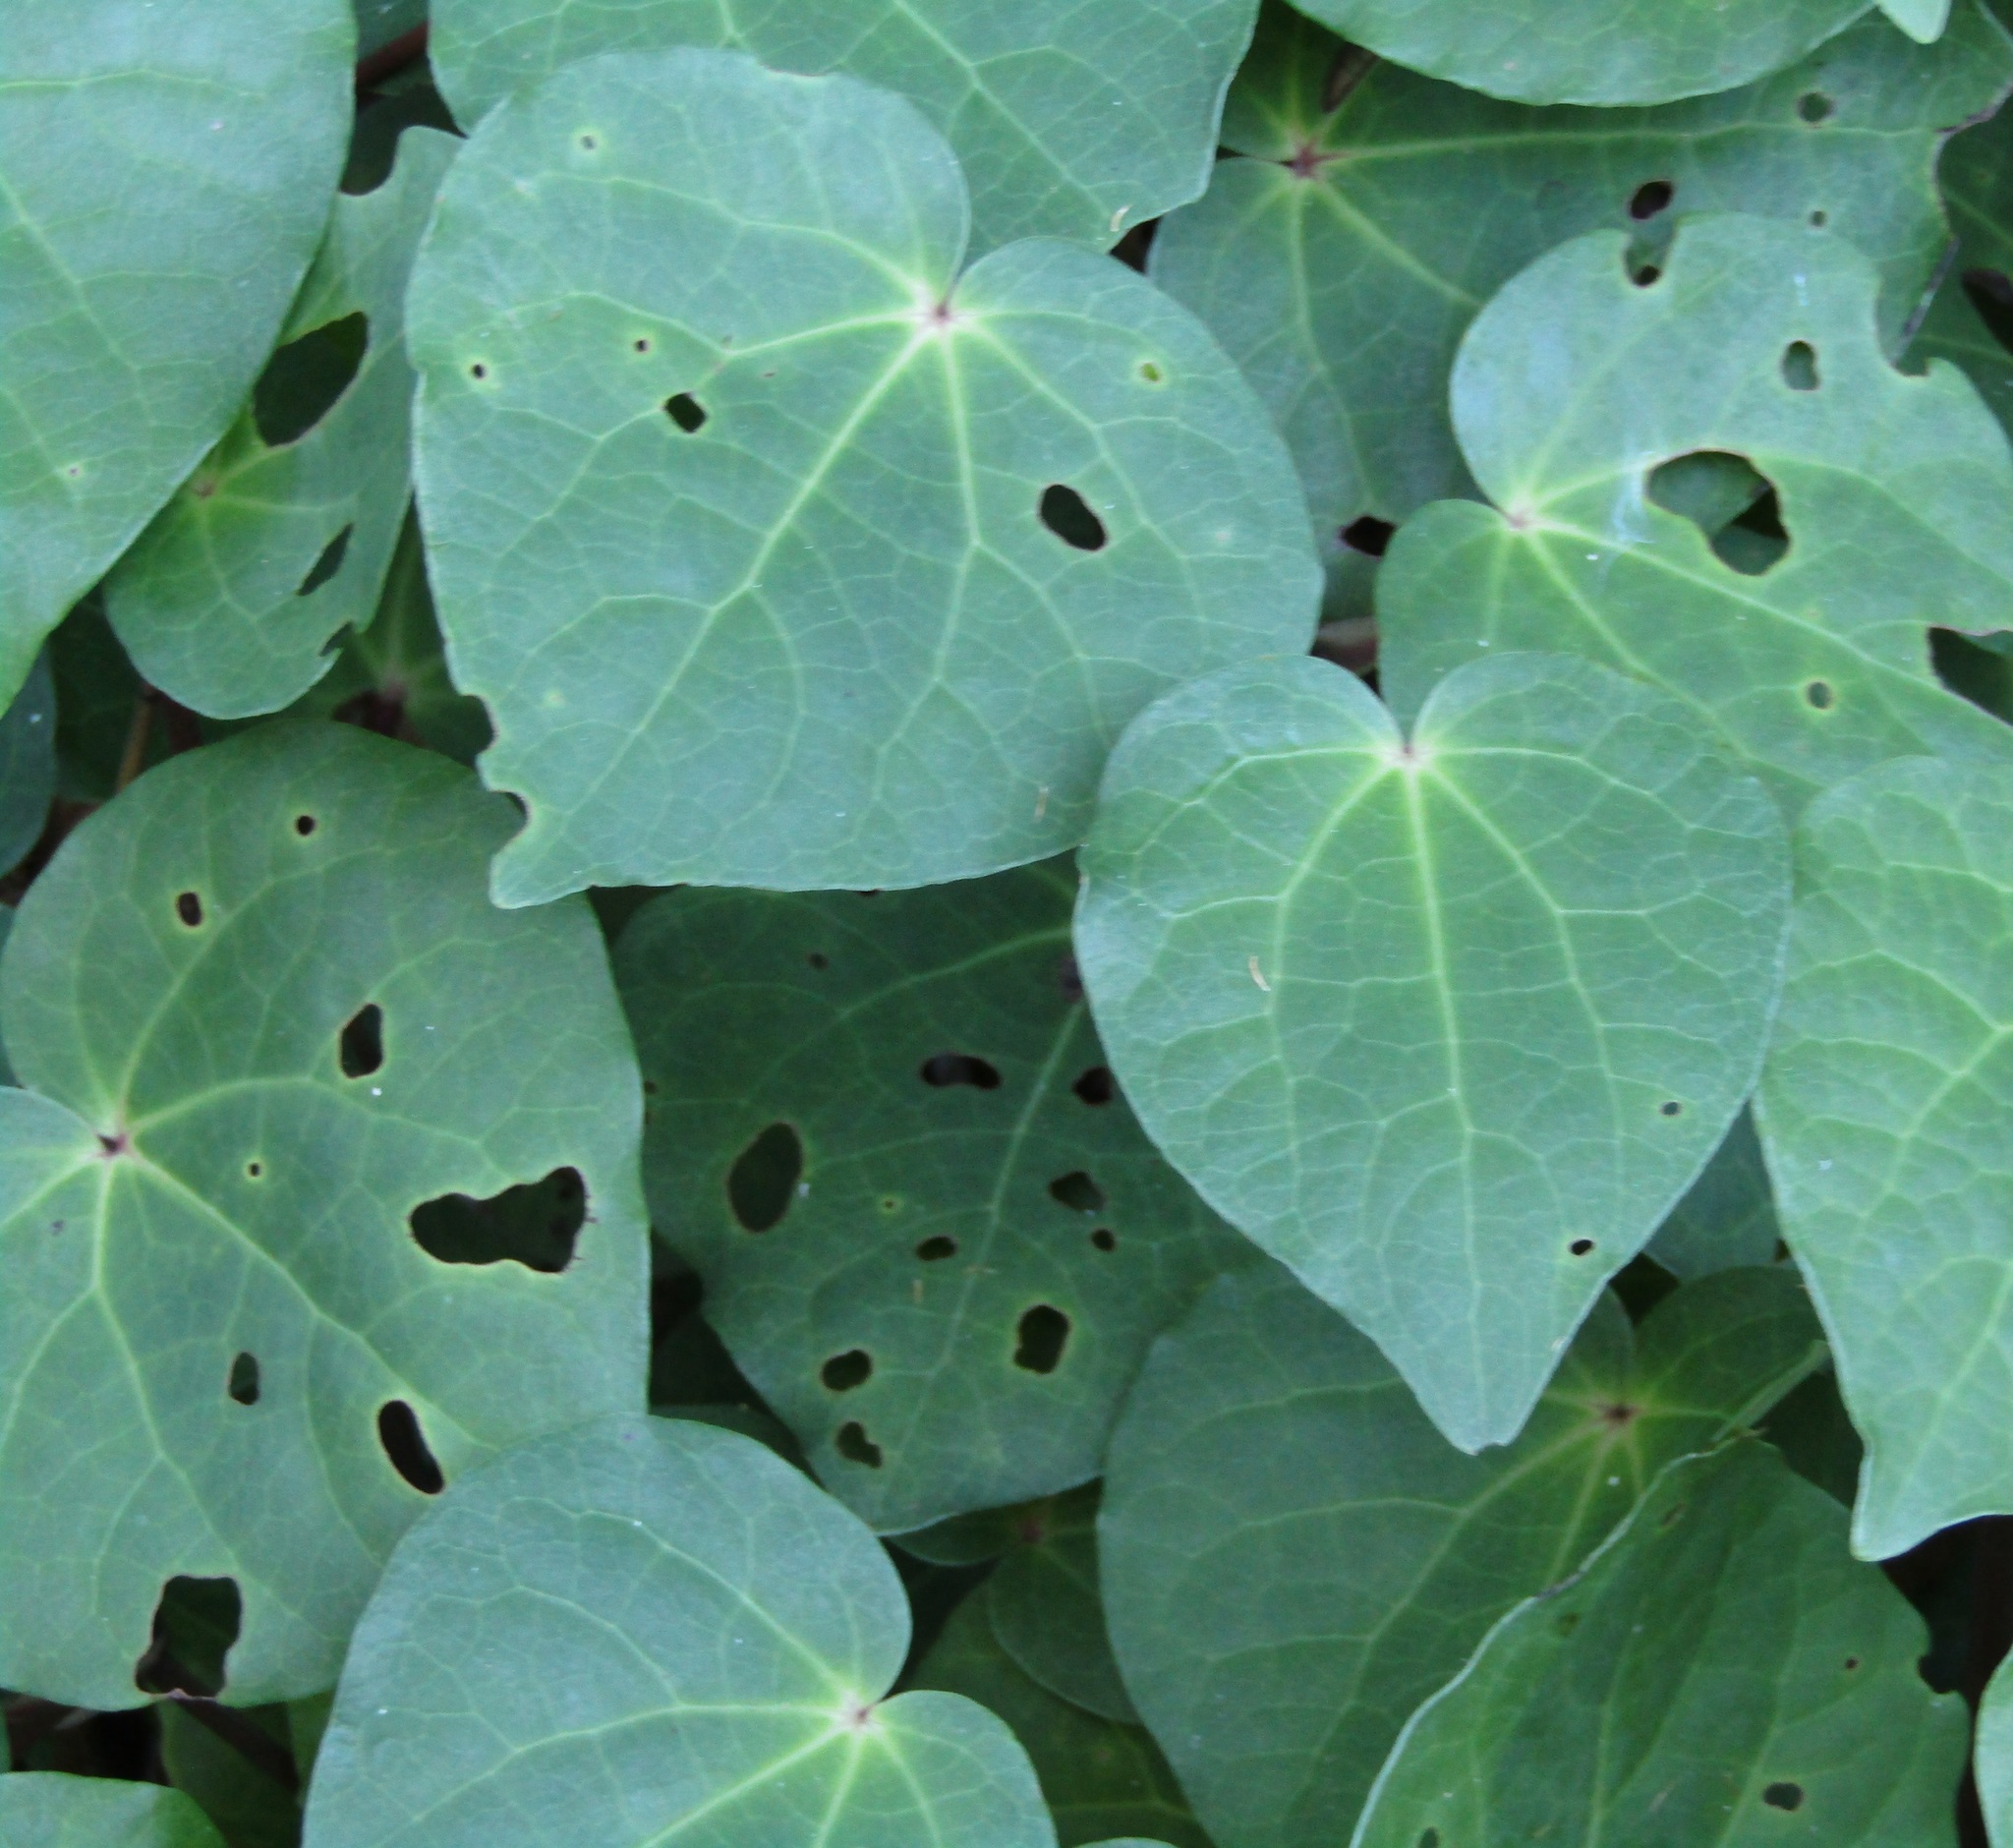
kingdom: Plantae
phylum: Tracheophyta
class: Magnoliopsida
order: Piperales
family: Piperaceae
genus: Macropiper
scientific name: Macropiper excelsum
